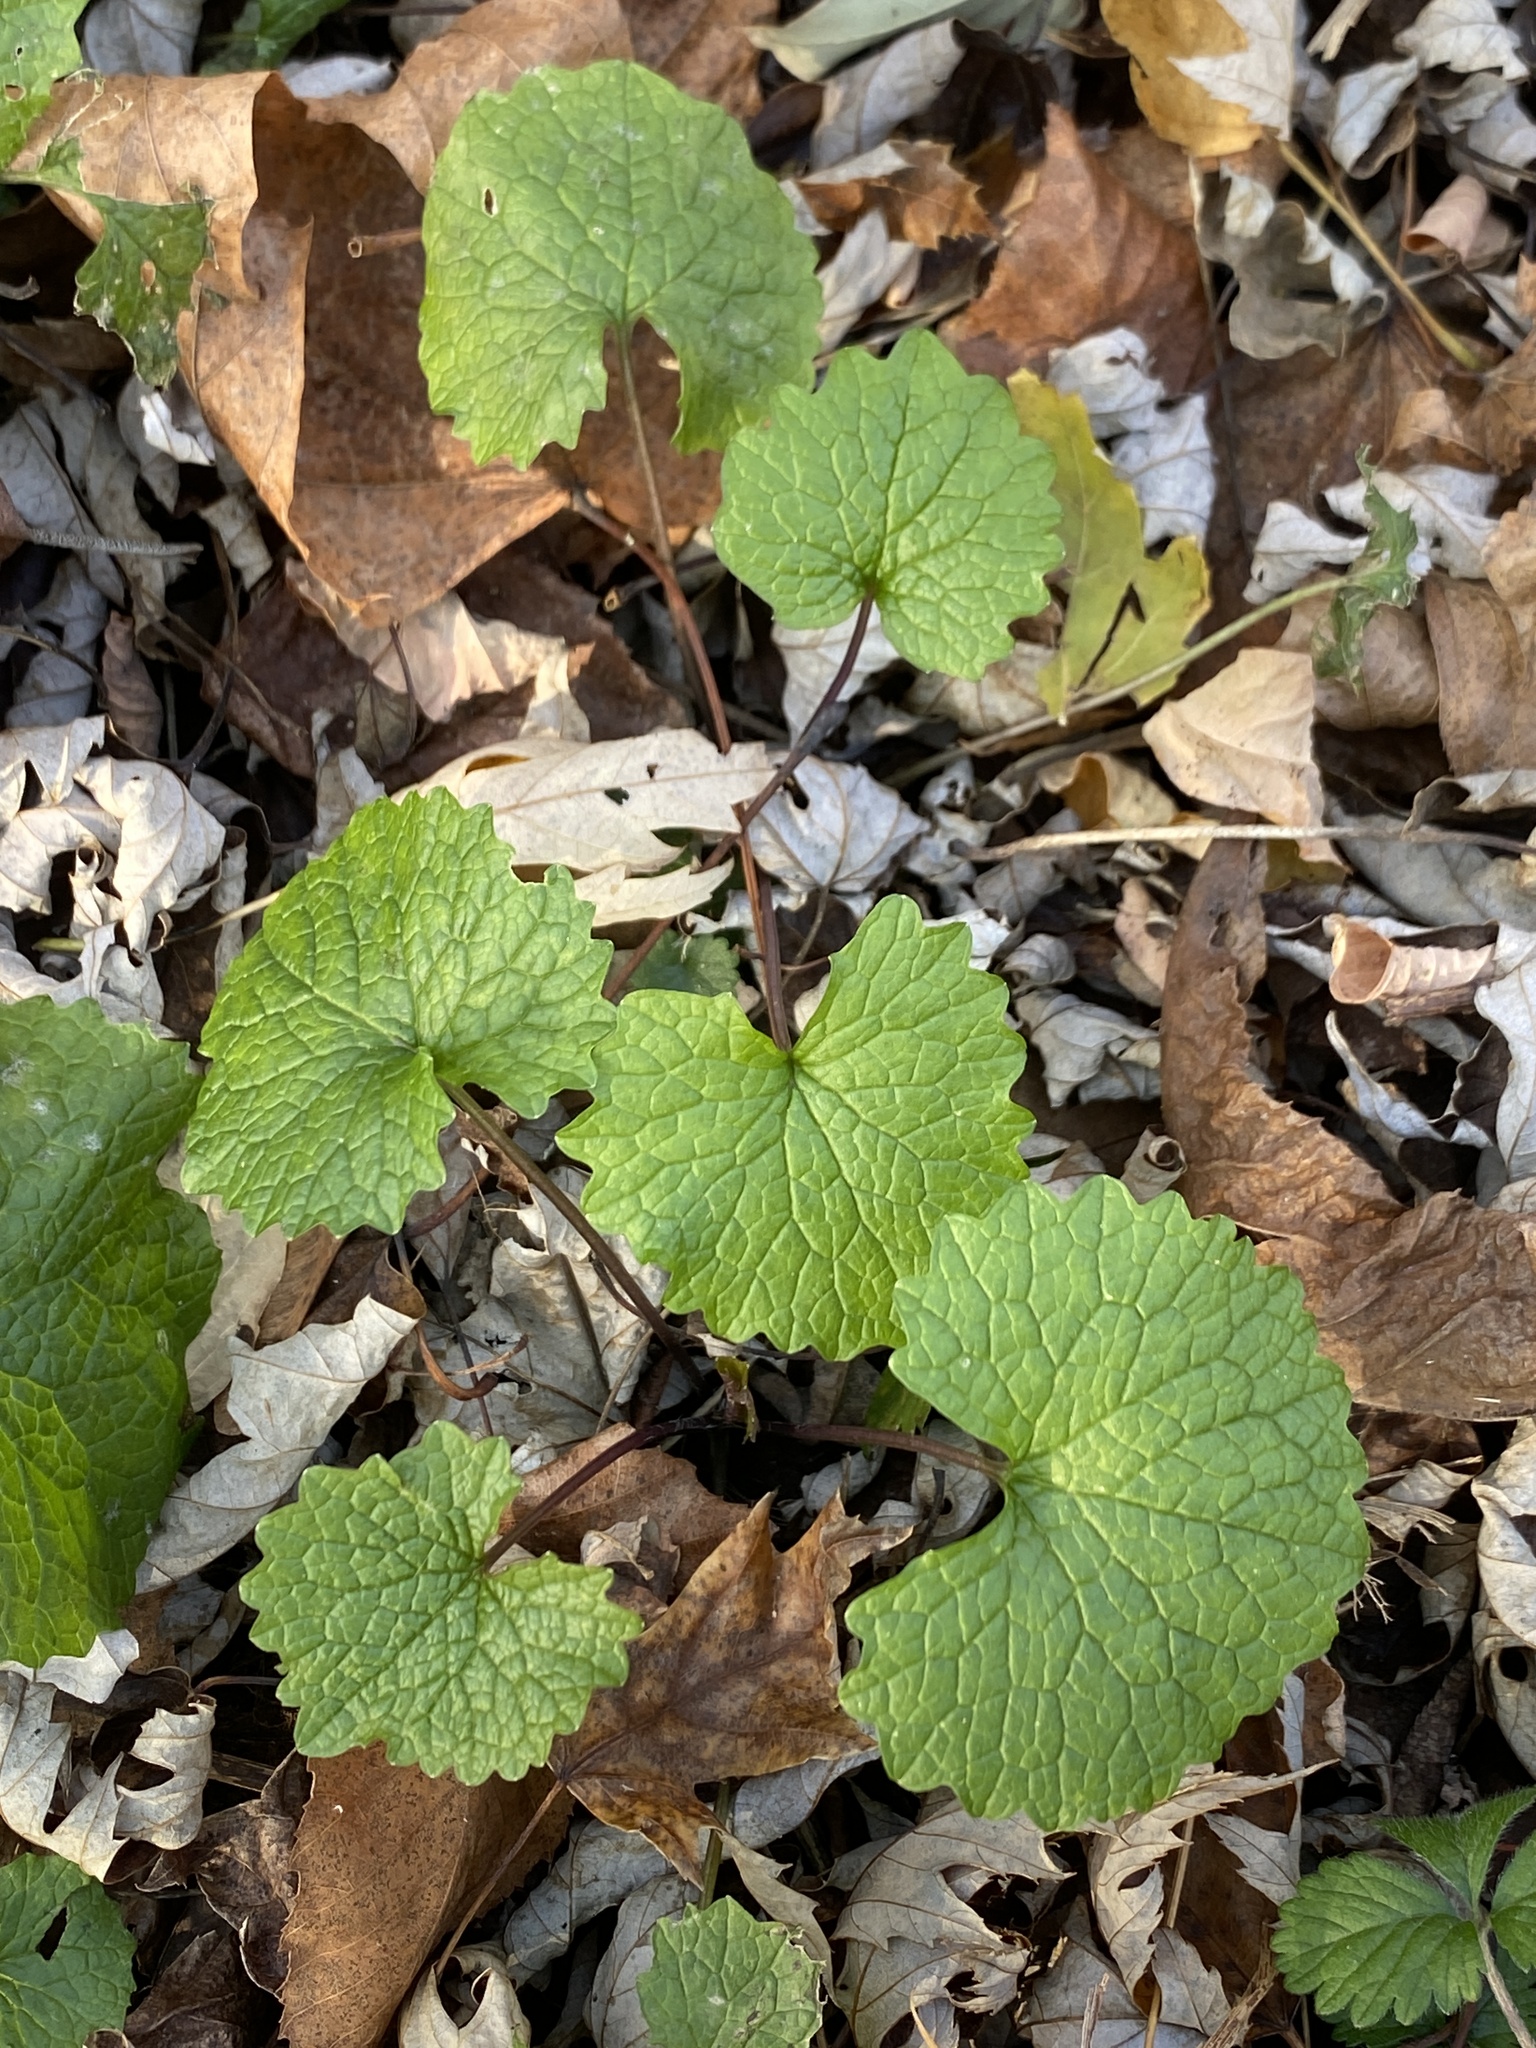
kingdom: Plantae
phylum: Tracheophyta
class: Magnoliopsida
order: Brassicales
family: Brassicaceae
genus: Alliaria
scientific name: Alliaria petiolata
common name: Garlic mustard
